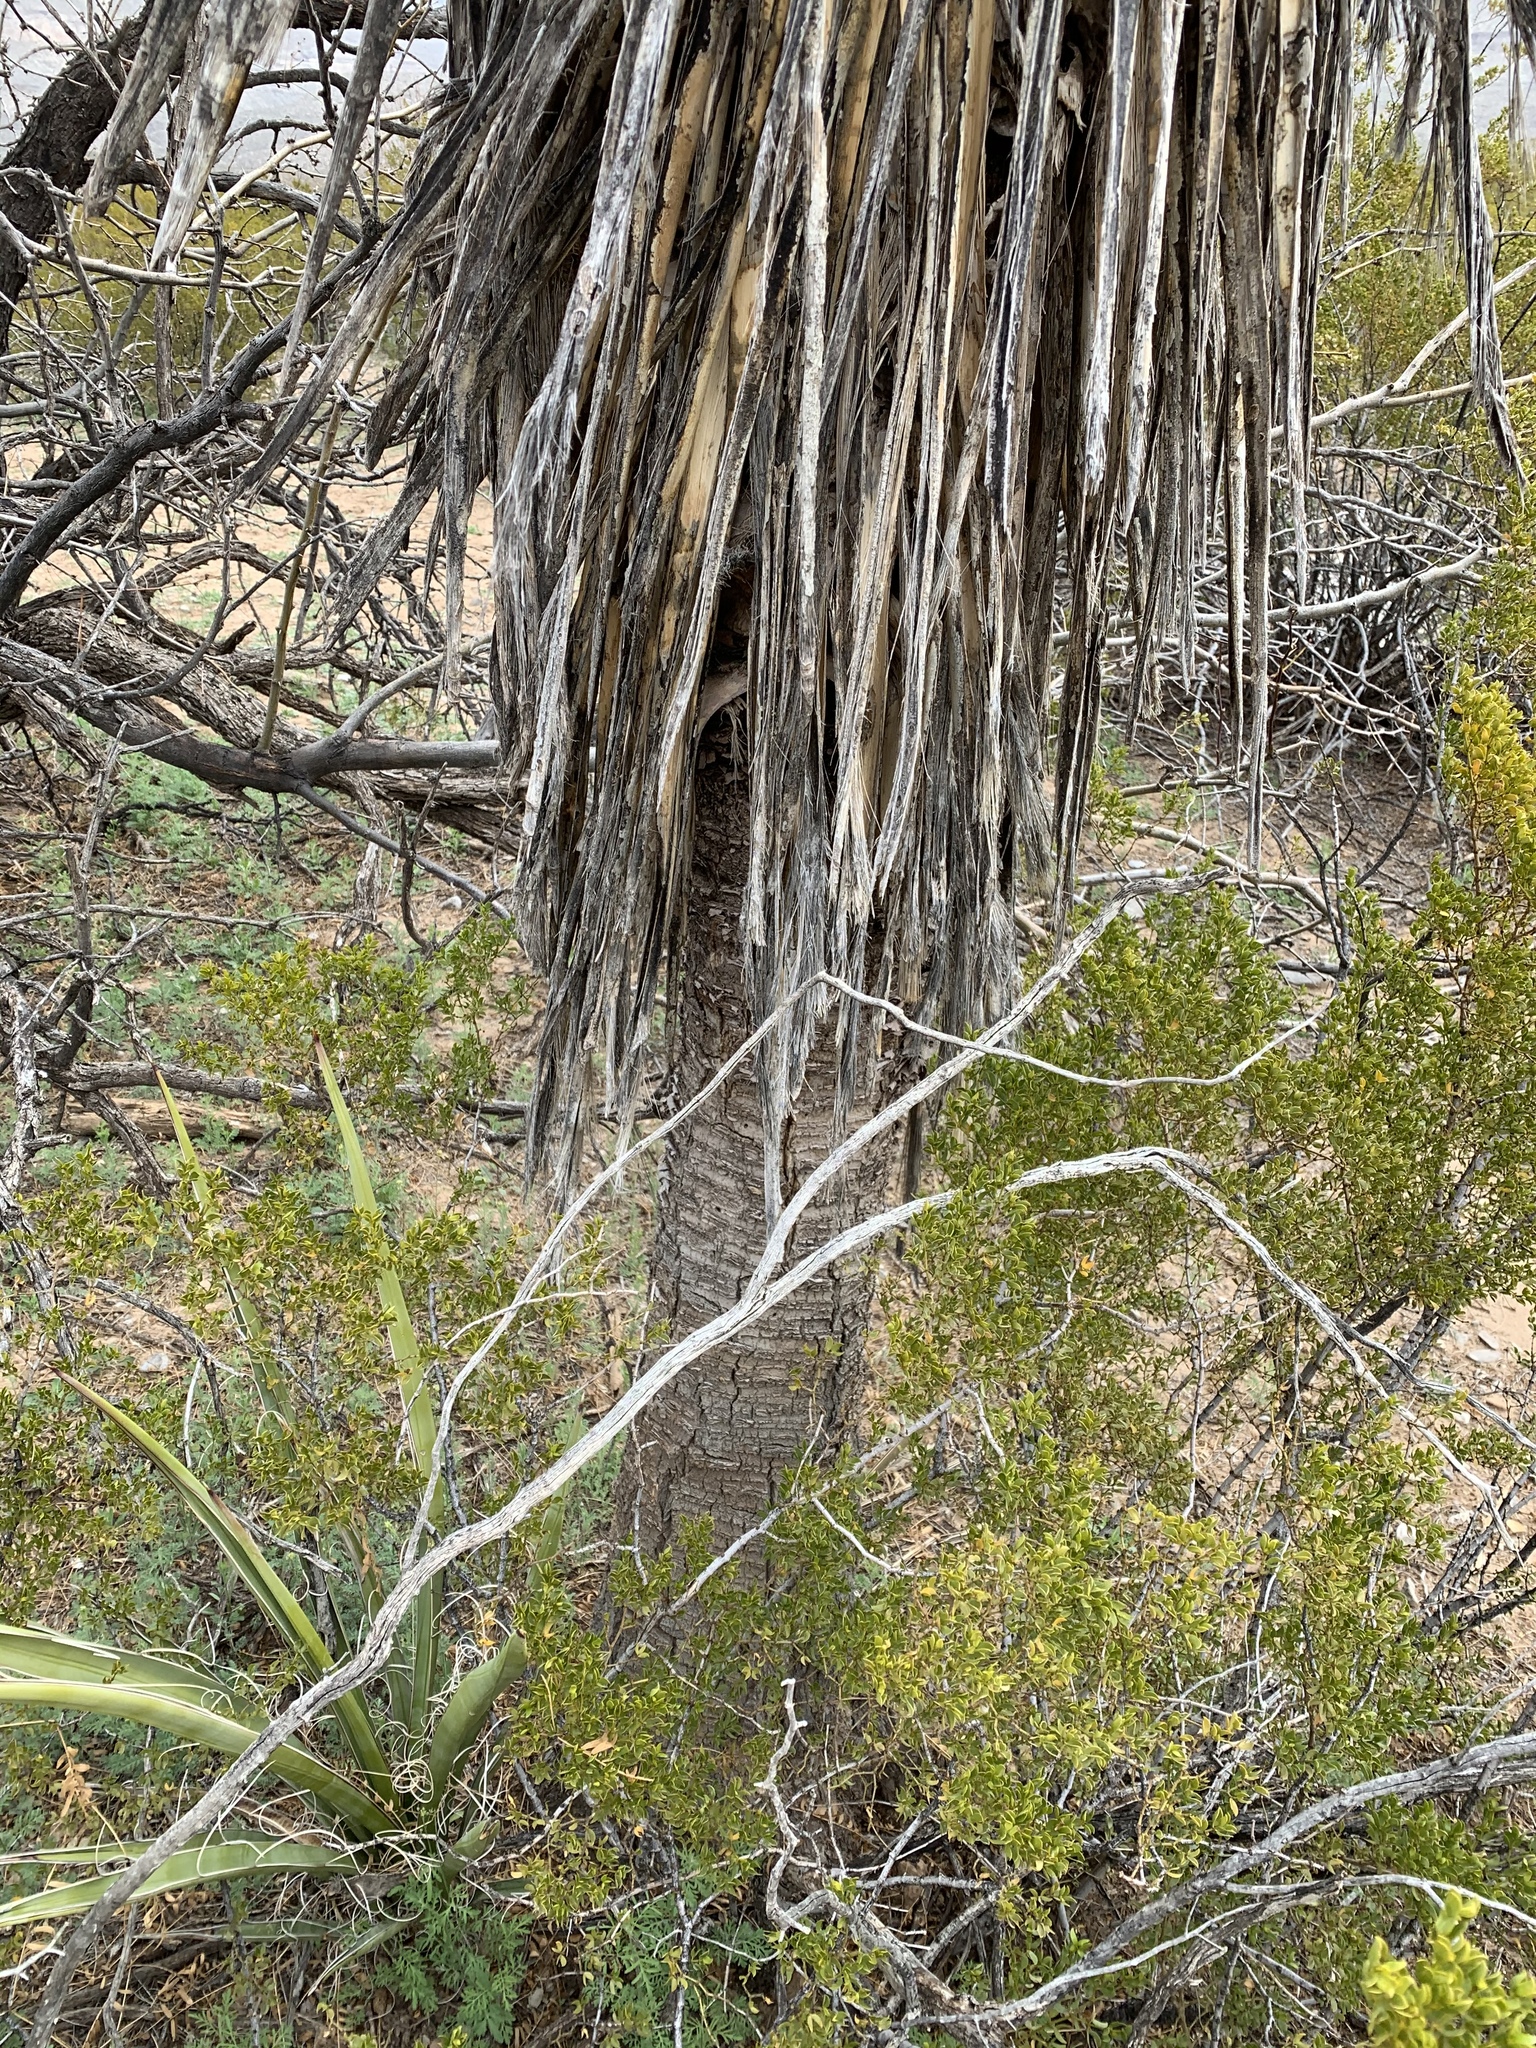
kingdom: Plantae
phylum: Tracheophyta
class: Liliopsida
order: Asparagales
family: Asparagaceae
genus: Yucca
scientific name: Yucca treculiana
